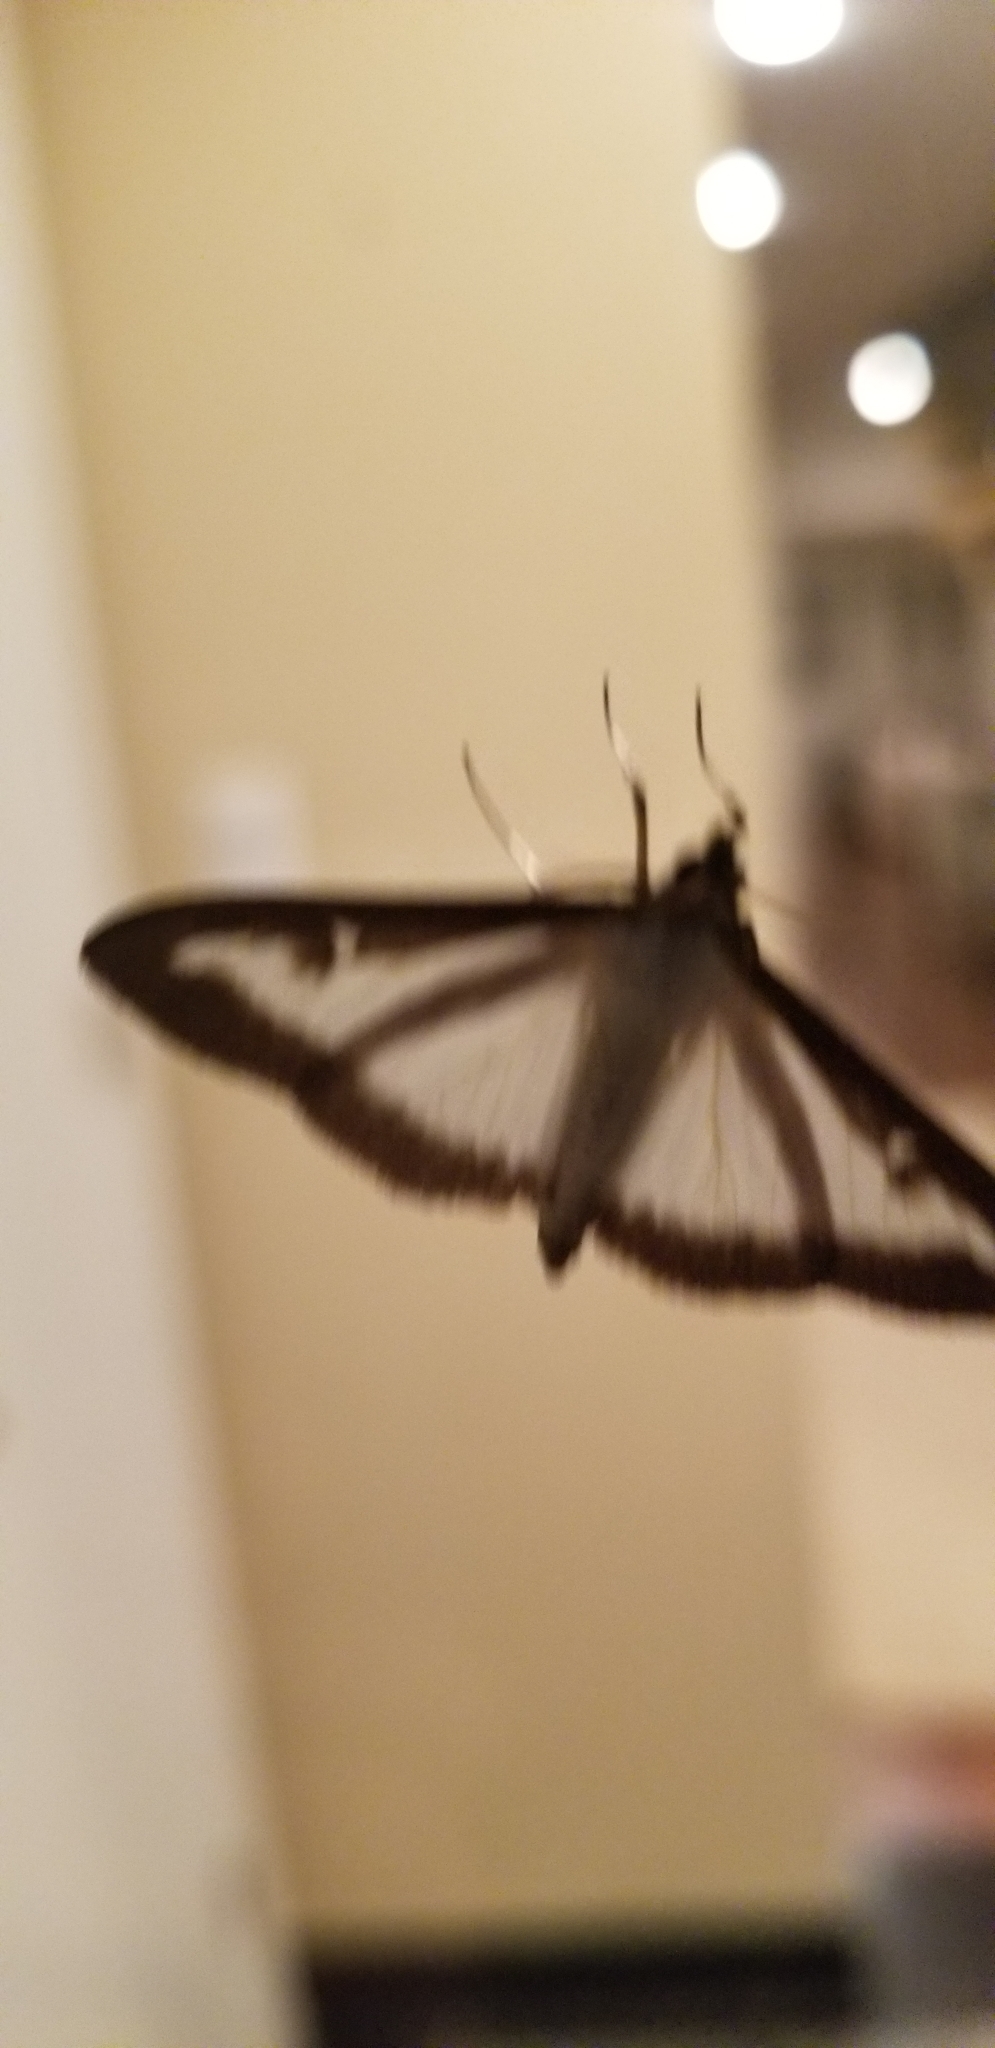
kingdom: Animalia
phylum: Arthropoda
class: Insecta
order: Lepidoptera
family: Crambidae
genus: Cydalima
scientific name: Cydalima perspectalis
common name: Box tree moth
